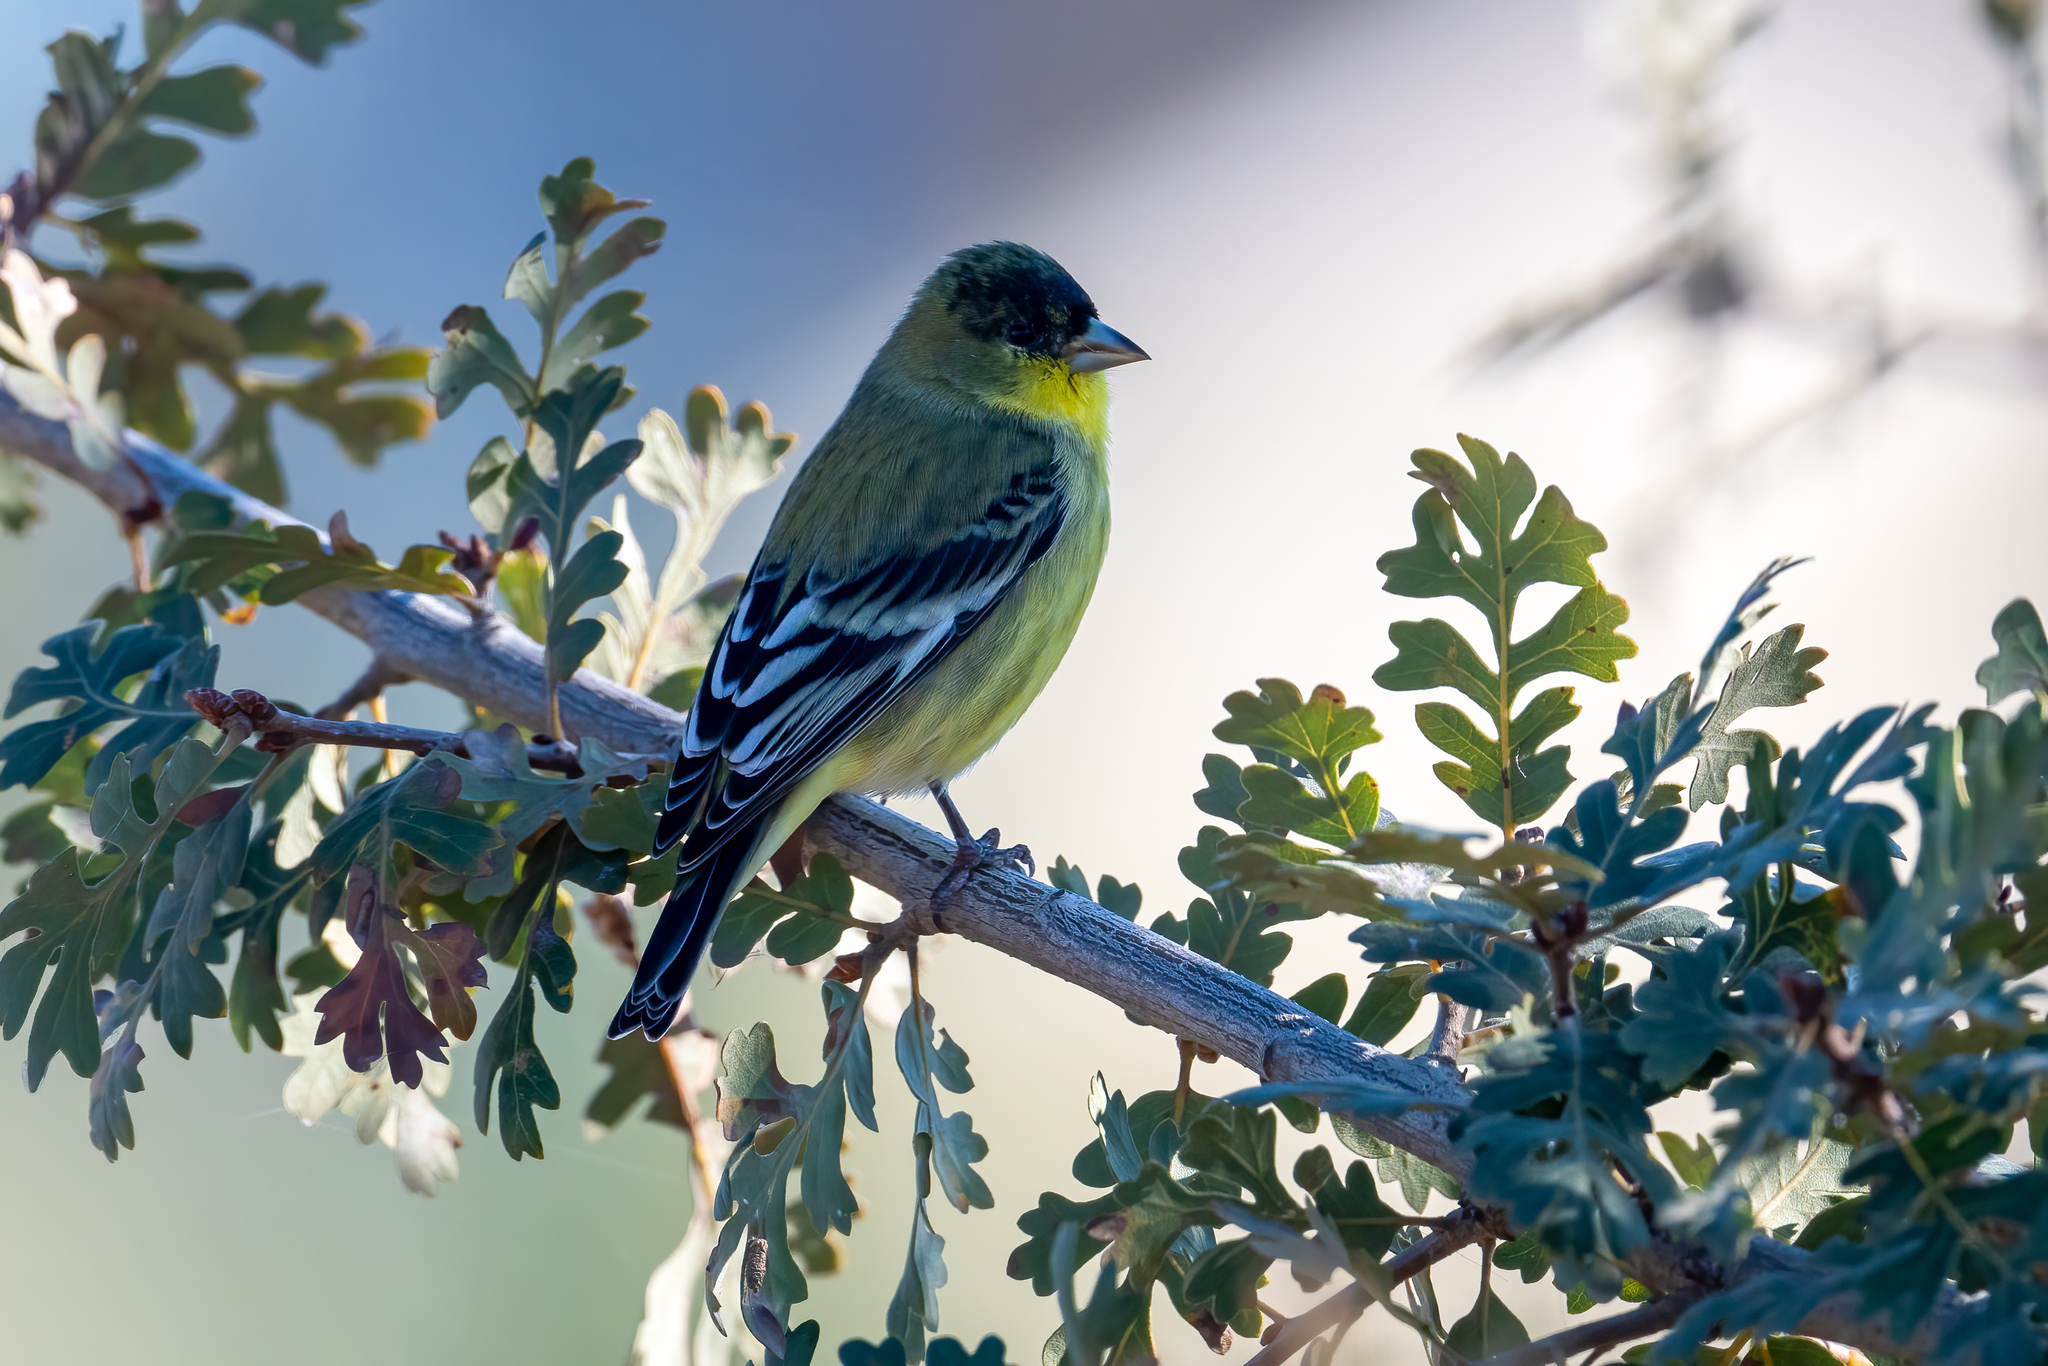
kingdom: Animalia
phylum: Chordata
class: Aves
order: Passeriformes
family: Fringillidae
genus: Spinus
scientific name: Spinus psaltria
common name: Lesser goldfinch
